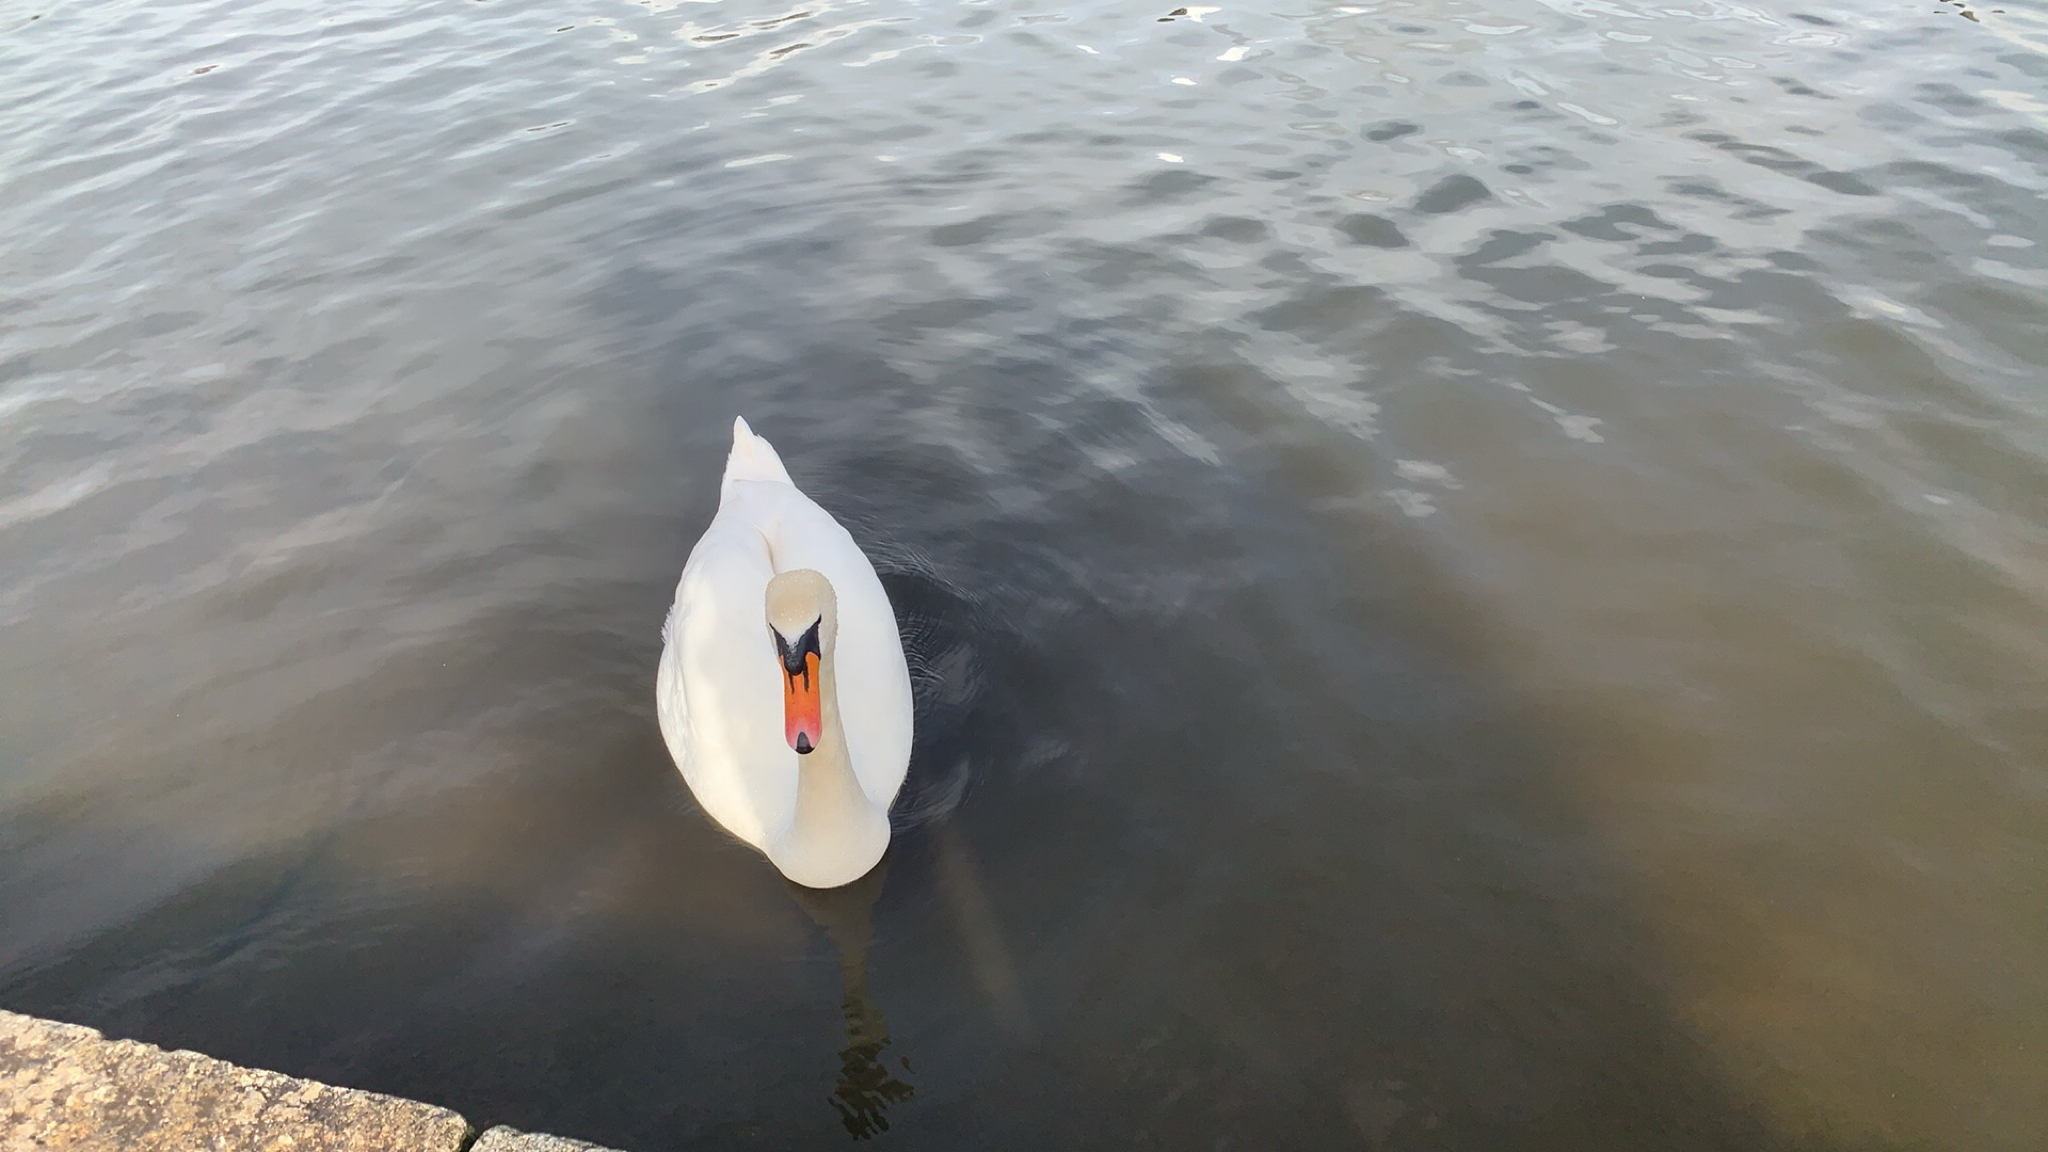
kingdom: Animalia
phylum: Chordata
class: Aves
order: Anseriformes
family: Anatidae
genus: Cygnus
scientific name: Cygnus olor
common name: Mute swan
